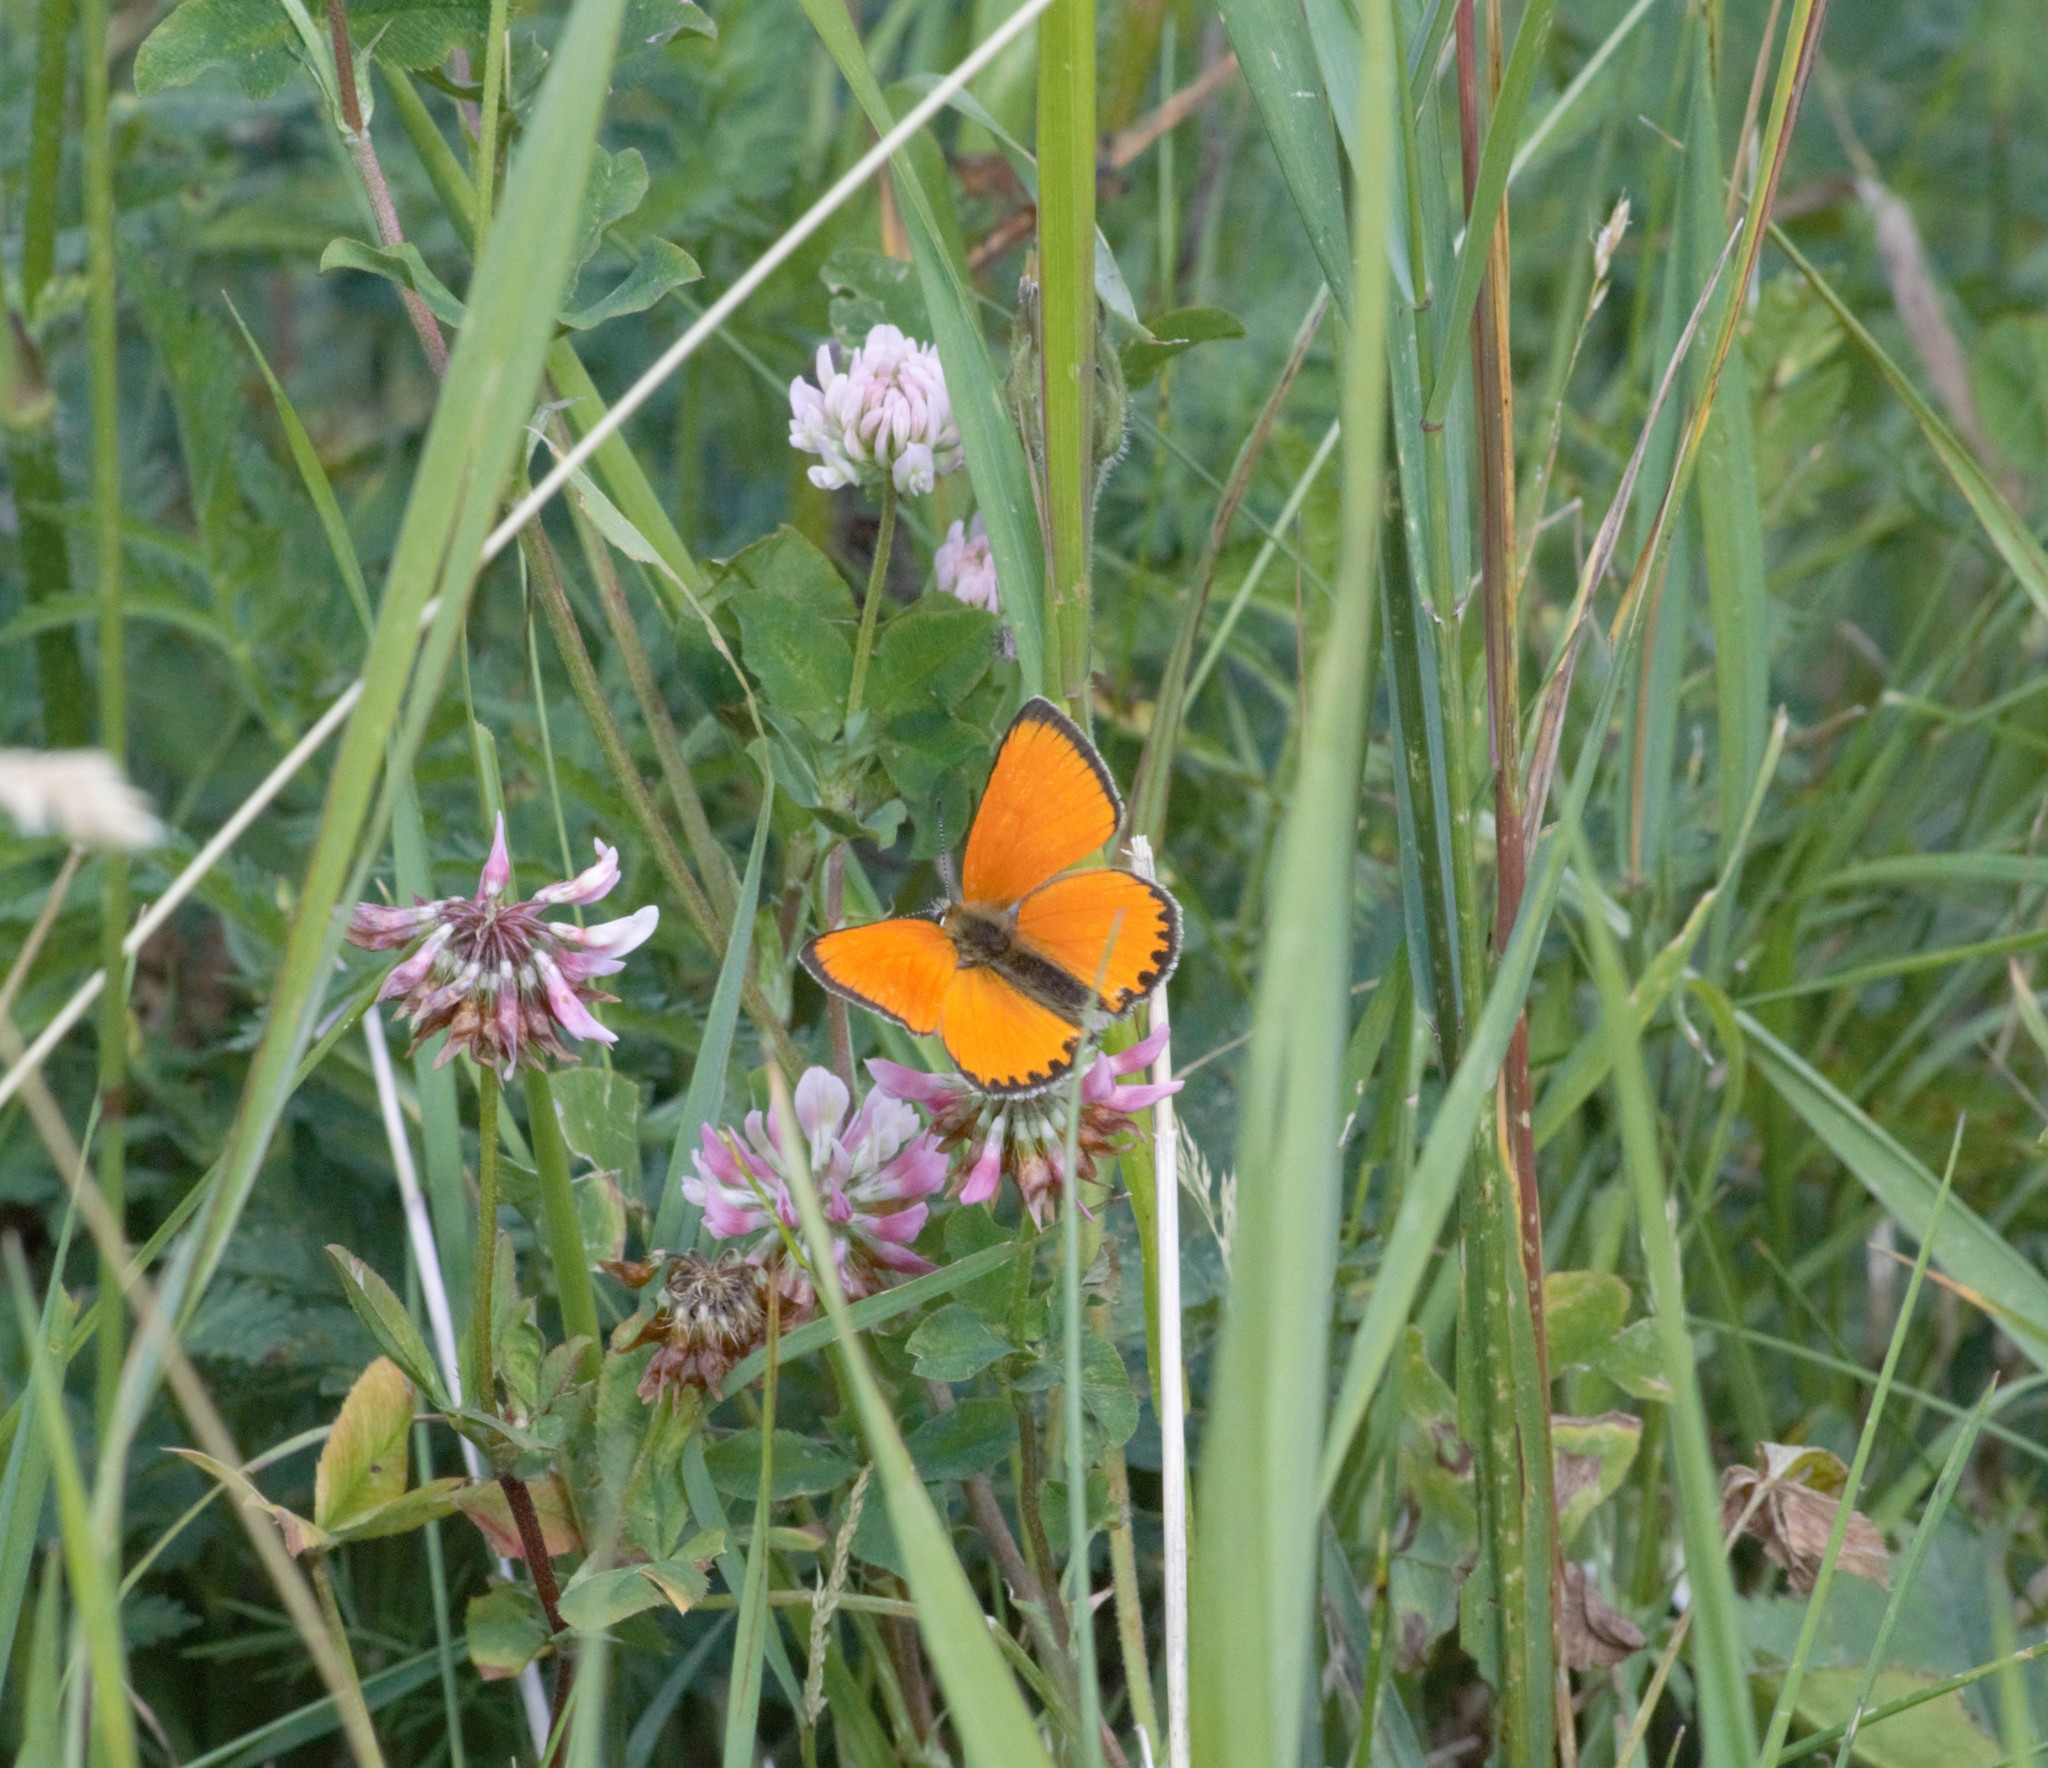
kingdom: Animalia
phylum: Arthropoda
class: Insecta
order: Lepidoptera
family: Lycaenidae
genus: Lycaena
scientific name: Lycaena virgaureae
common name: Scarce copper
